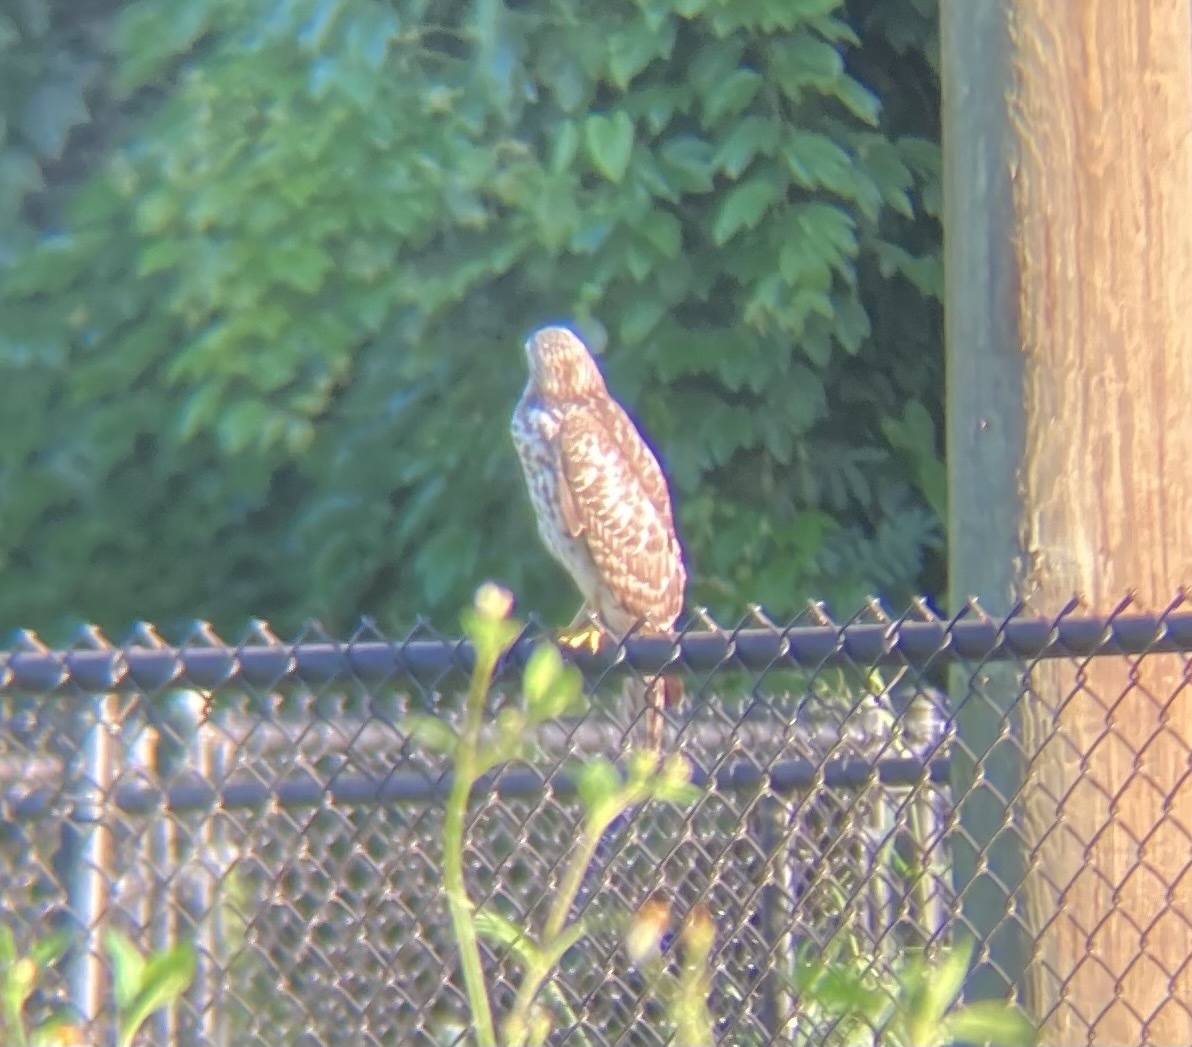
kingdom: Animalia
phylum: Chordata
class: Aves
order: Accipitriformes
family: Accipitridae
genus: Buteo
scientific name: Buteo lineatus
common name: Red-shouldered hawk
